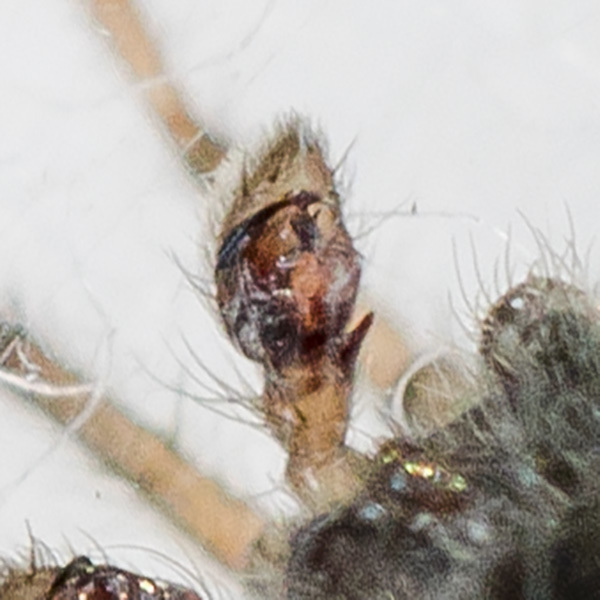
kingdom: Animalia
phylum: Arthropoda
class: Arachnida
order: Araneae
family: Gnaphosidae
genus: Berlandina
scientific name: Berlandina spasskyi
